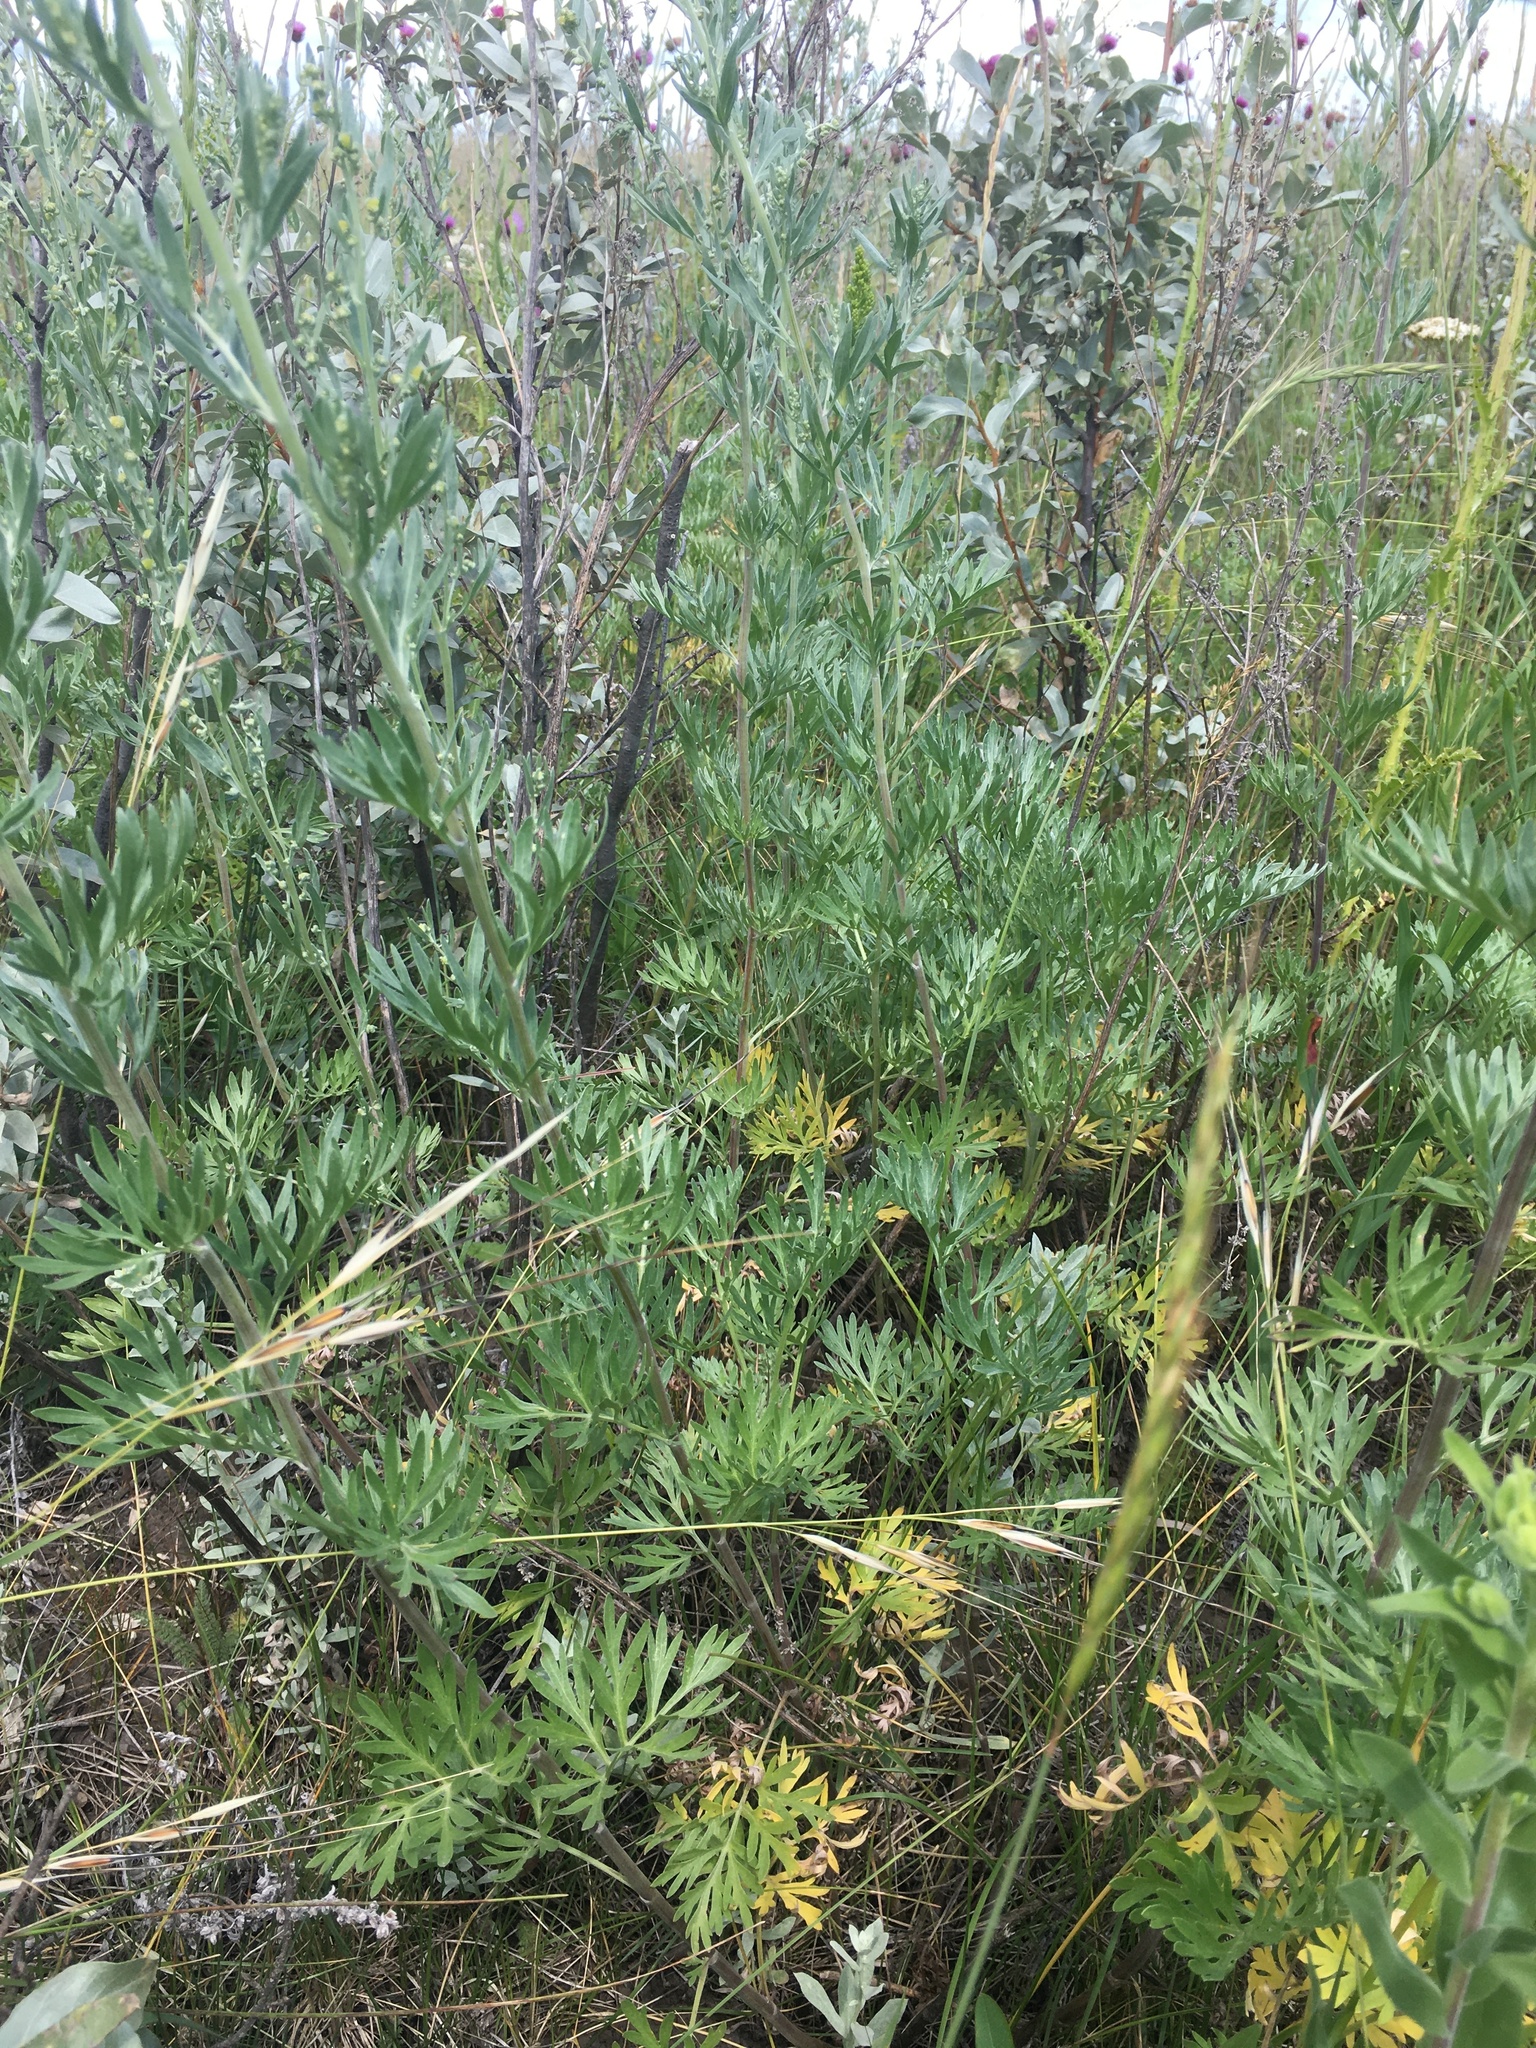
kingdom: Plantae
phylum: Tracheophyta
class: Magnoliopsida
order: Asterales
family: Asteraceae
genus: Artemisia
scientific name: Artemisia absinthium
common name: Wormwood
